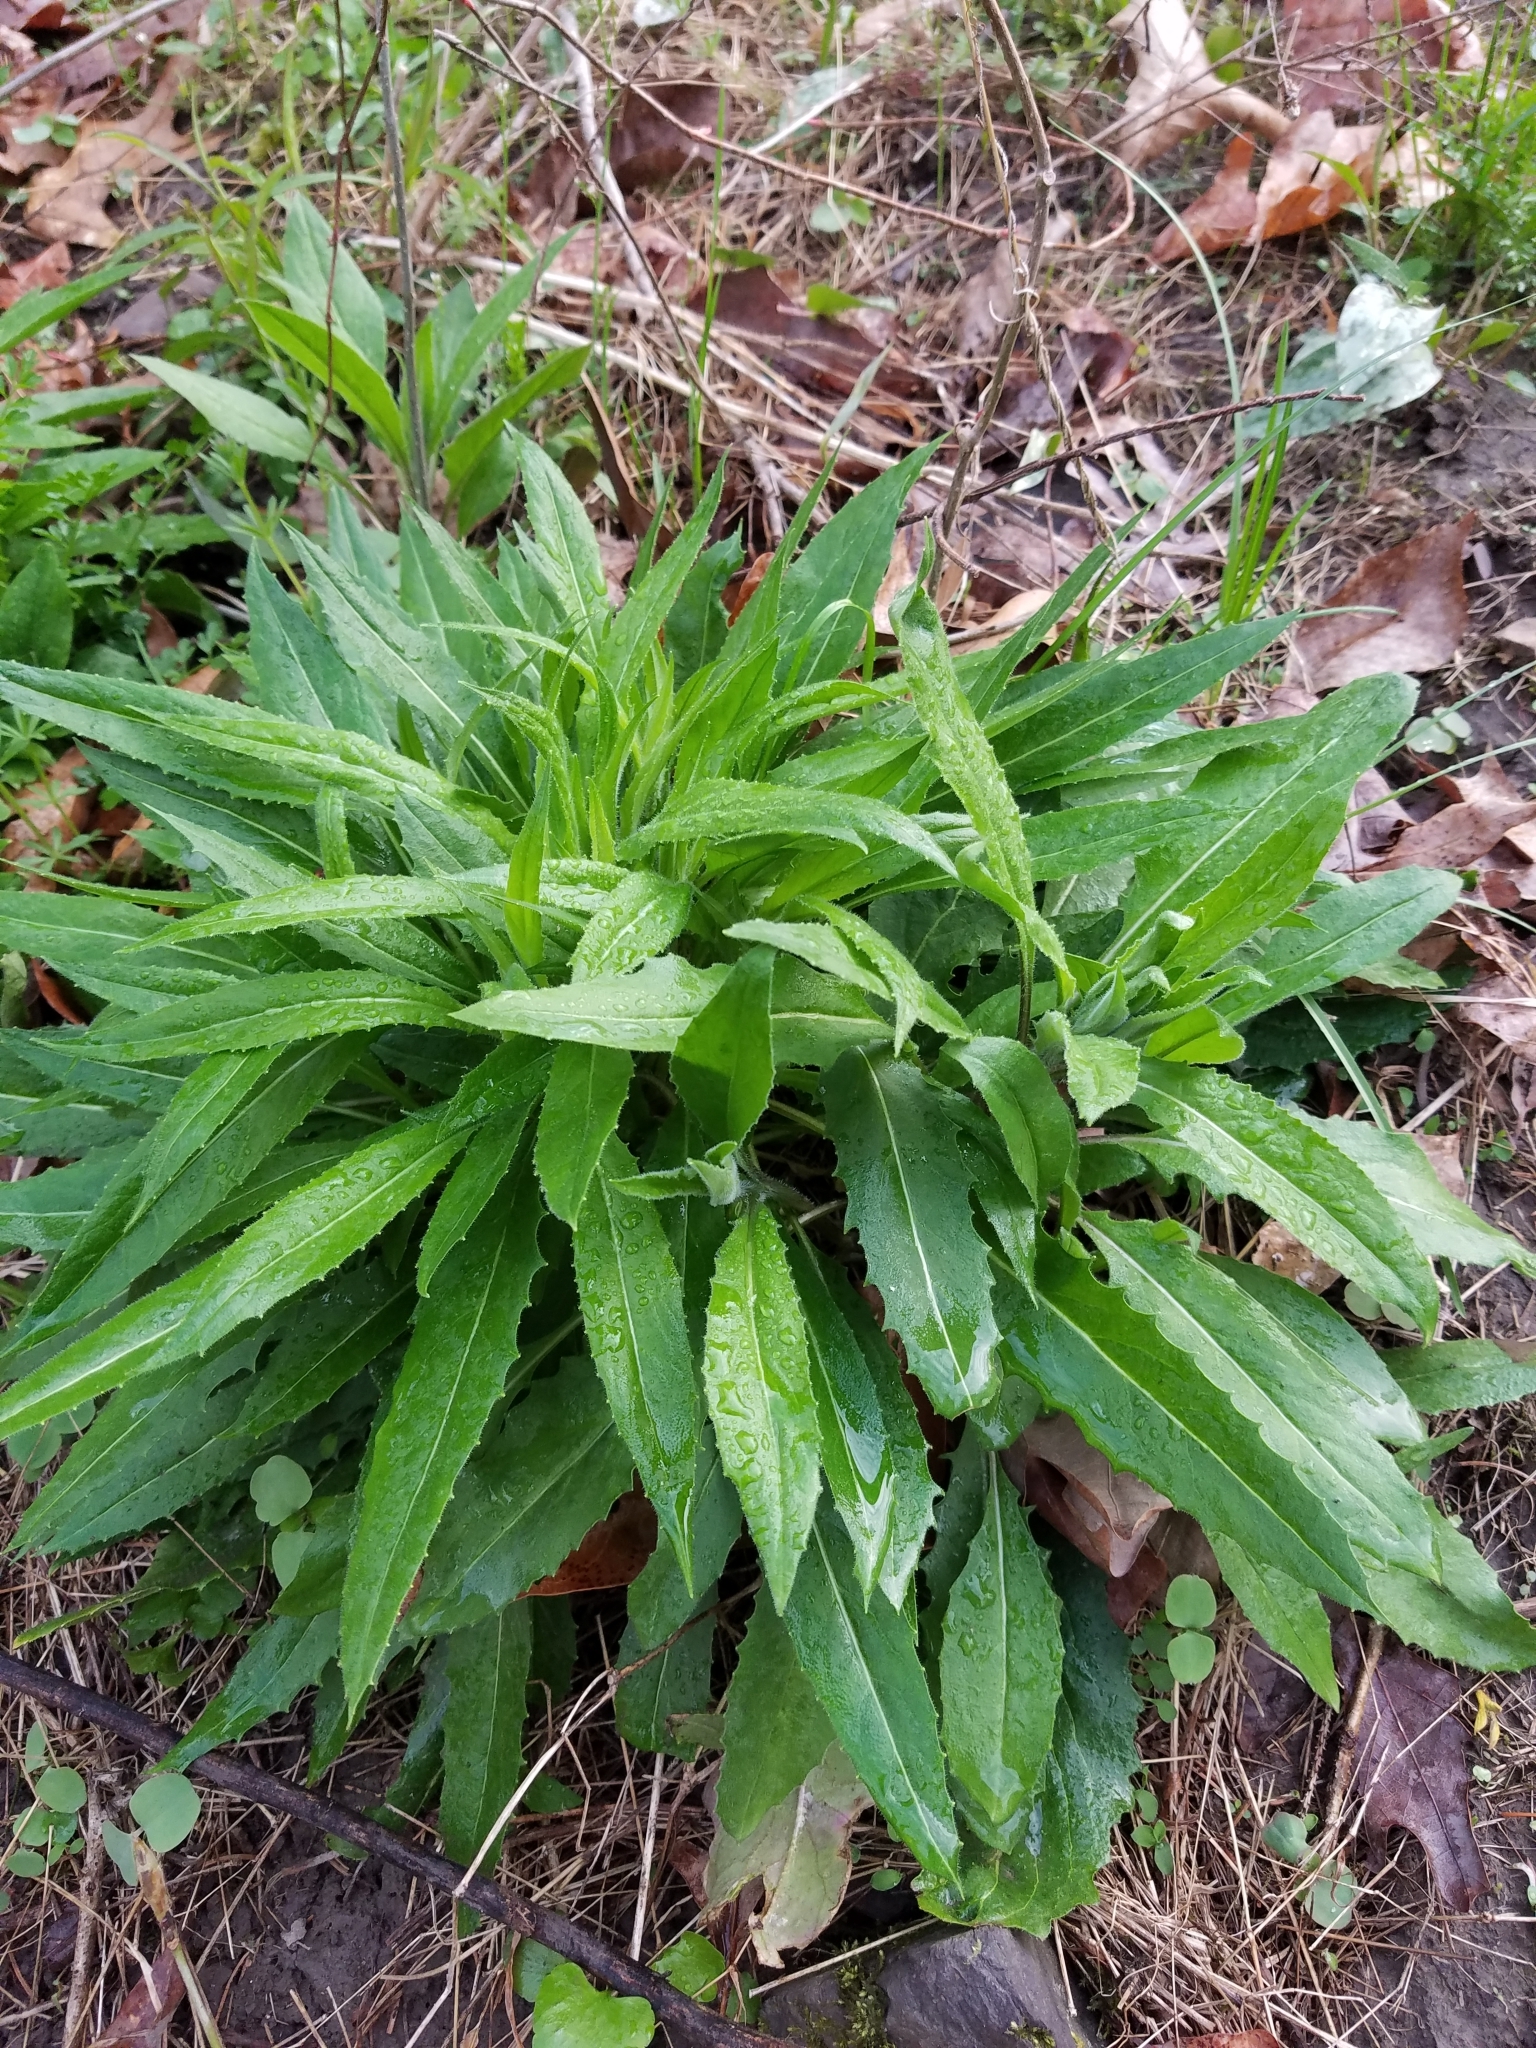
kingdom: Plantae
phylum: Tracheophyta
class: Magnoliopsida
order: Brassicales
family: Brassicaceae
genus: Hesperis
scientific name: Hesperis matronalis
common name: Dame's-violet
